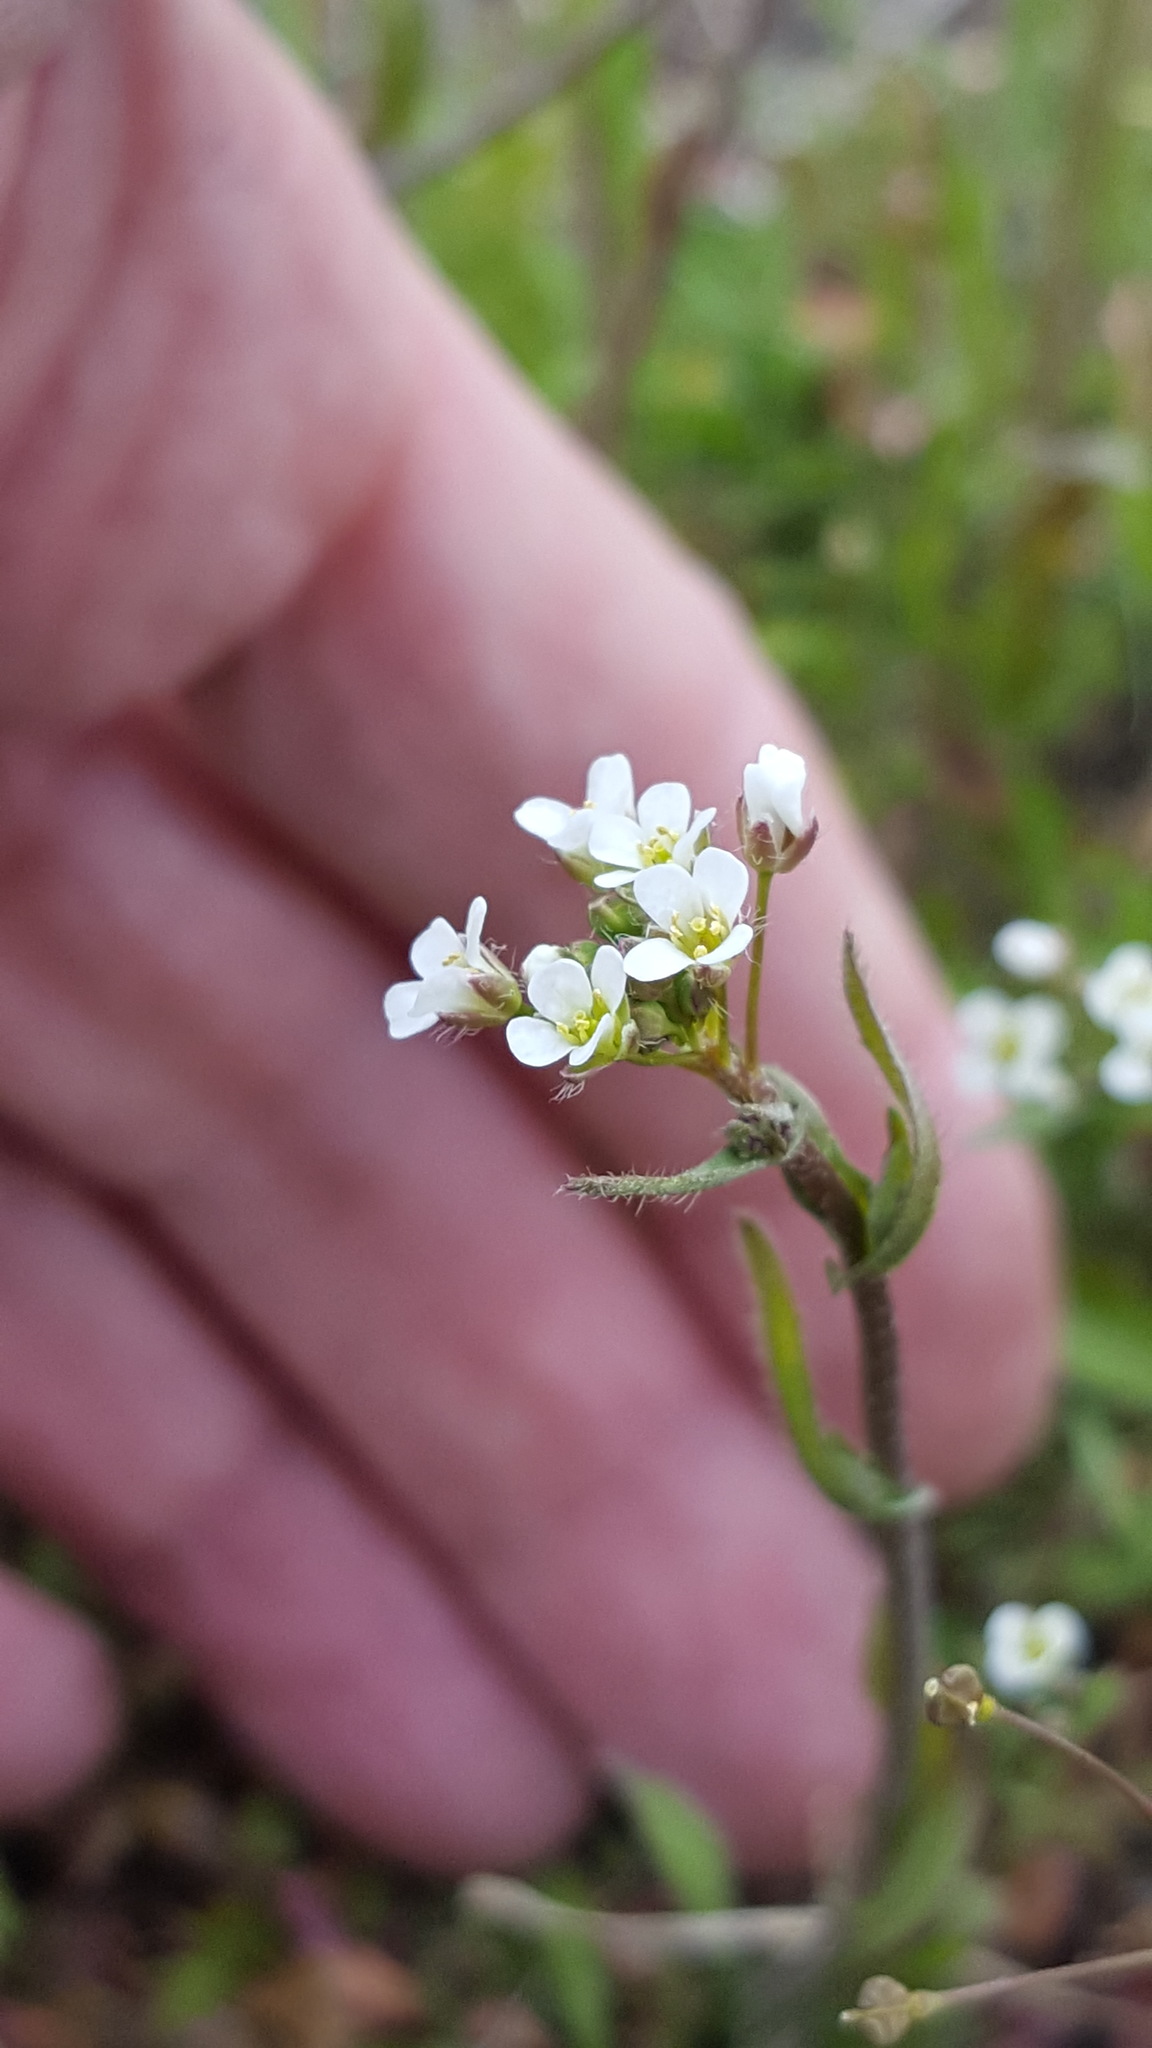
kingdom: Plantae
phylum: Tracheophyta
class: Magnoliopsida
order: Brassicales
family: Brassicaceae
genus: Capsella
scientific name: Capsella bursa-pastoris
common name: Shepherd's purse
